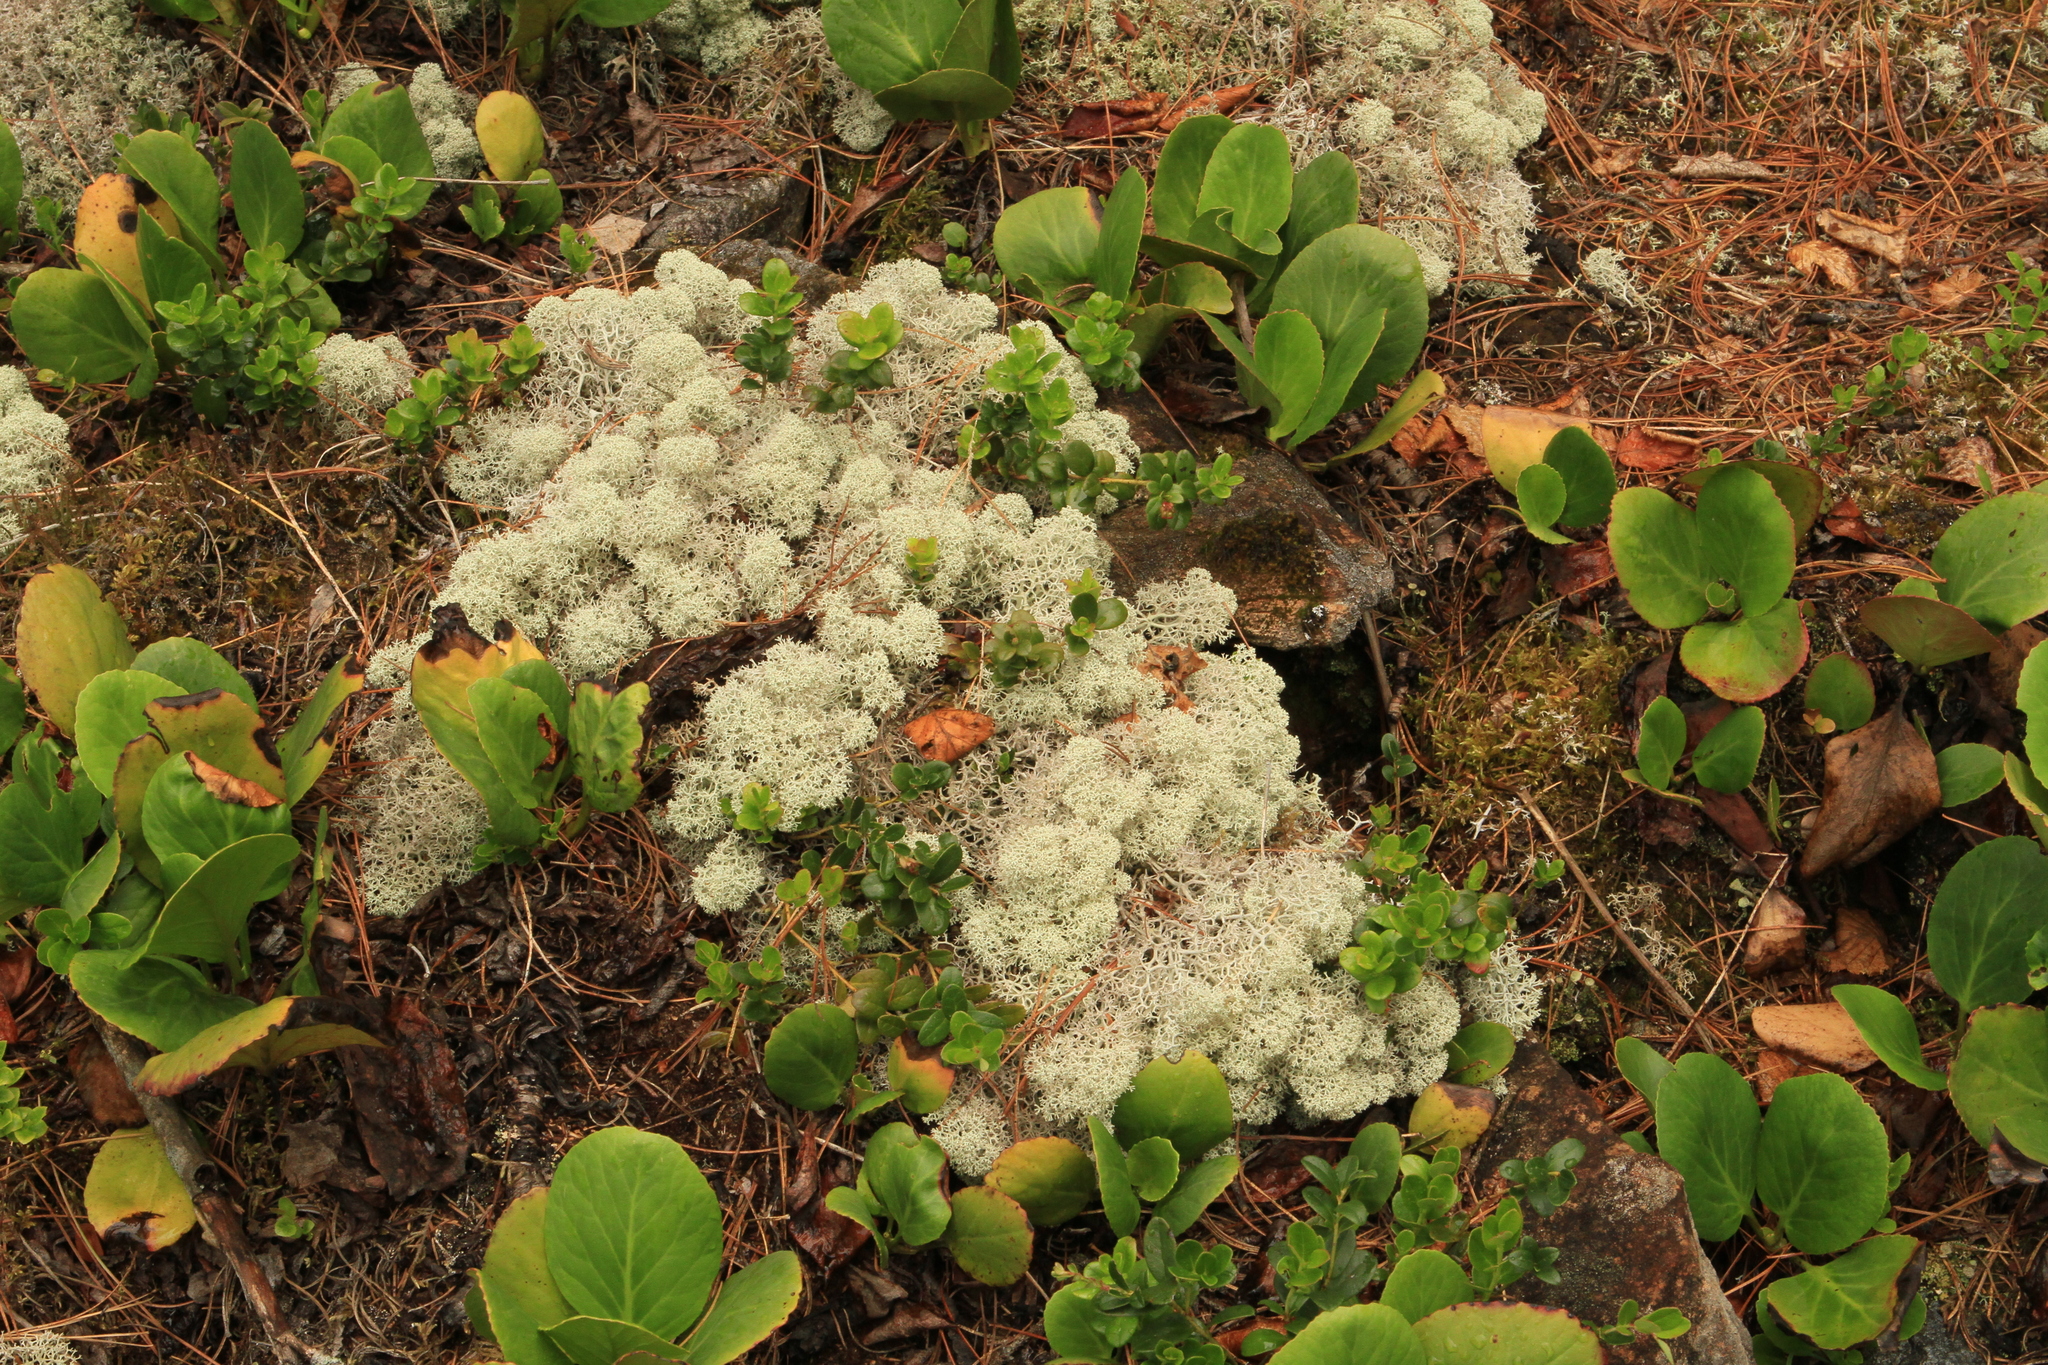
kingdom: Plantae
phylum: Tracheophyta
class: Magnoliopsida
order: Saxifragales
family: Saxifragaceae
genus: Bergenia
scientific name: Bergenia crassifolia
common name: Elephant-ears
